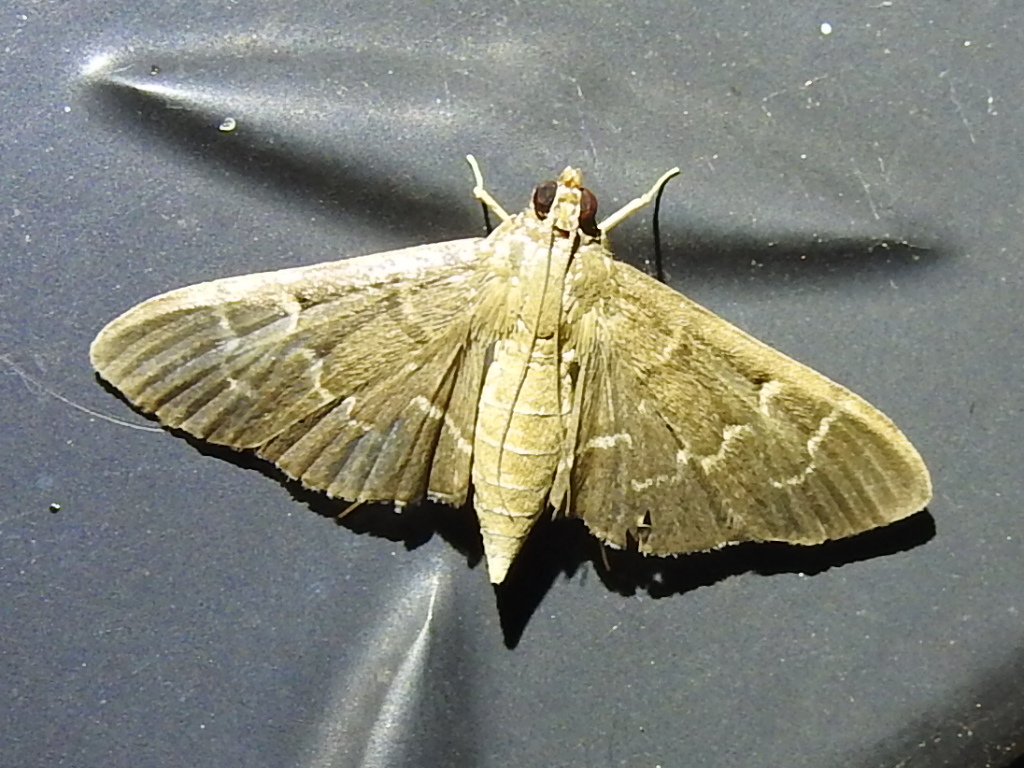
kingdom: Animalia
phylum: Arthropoda
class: Insecta
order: Lepidoptera
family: Crambidae
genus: Pilocrocis
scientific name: Pilocrocis ramentalis
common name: Scraped pilocrocis
